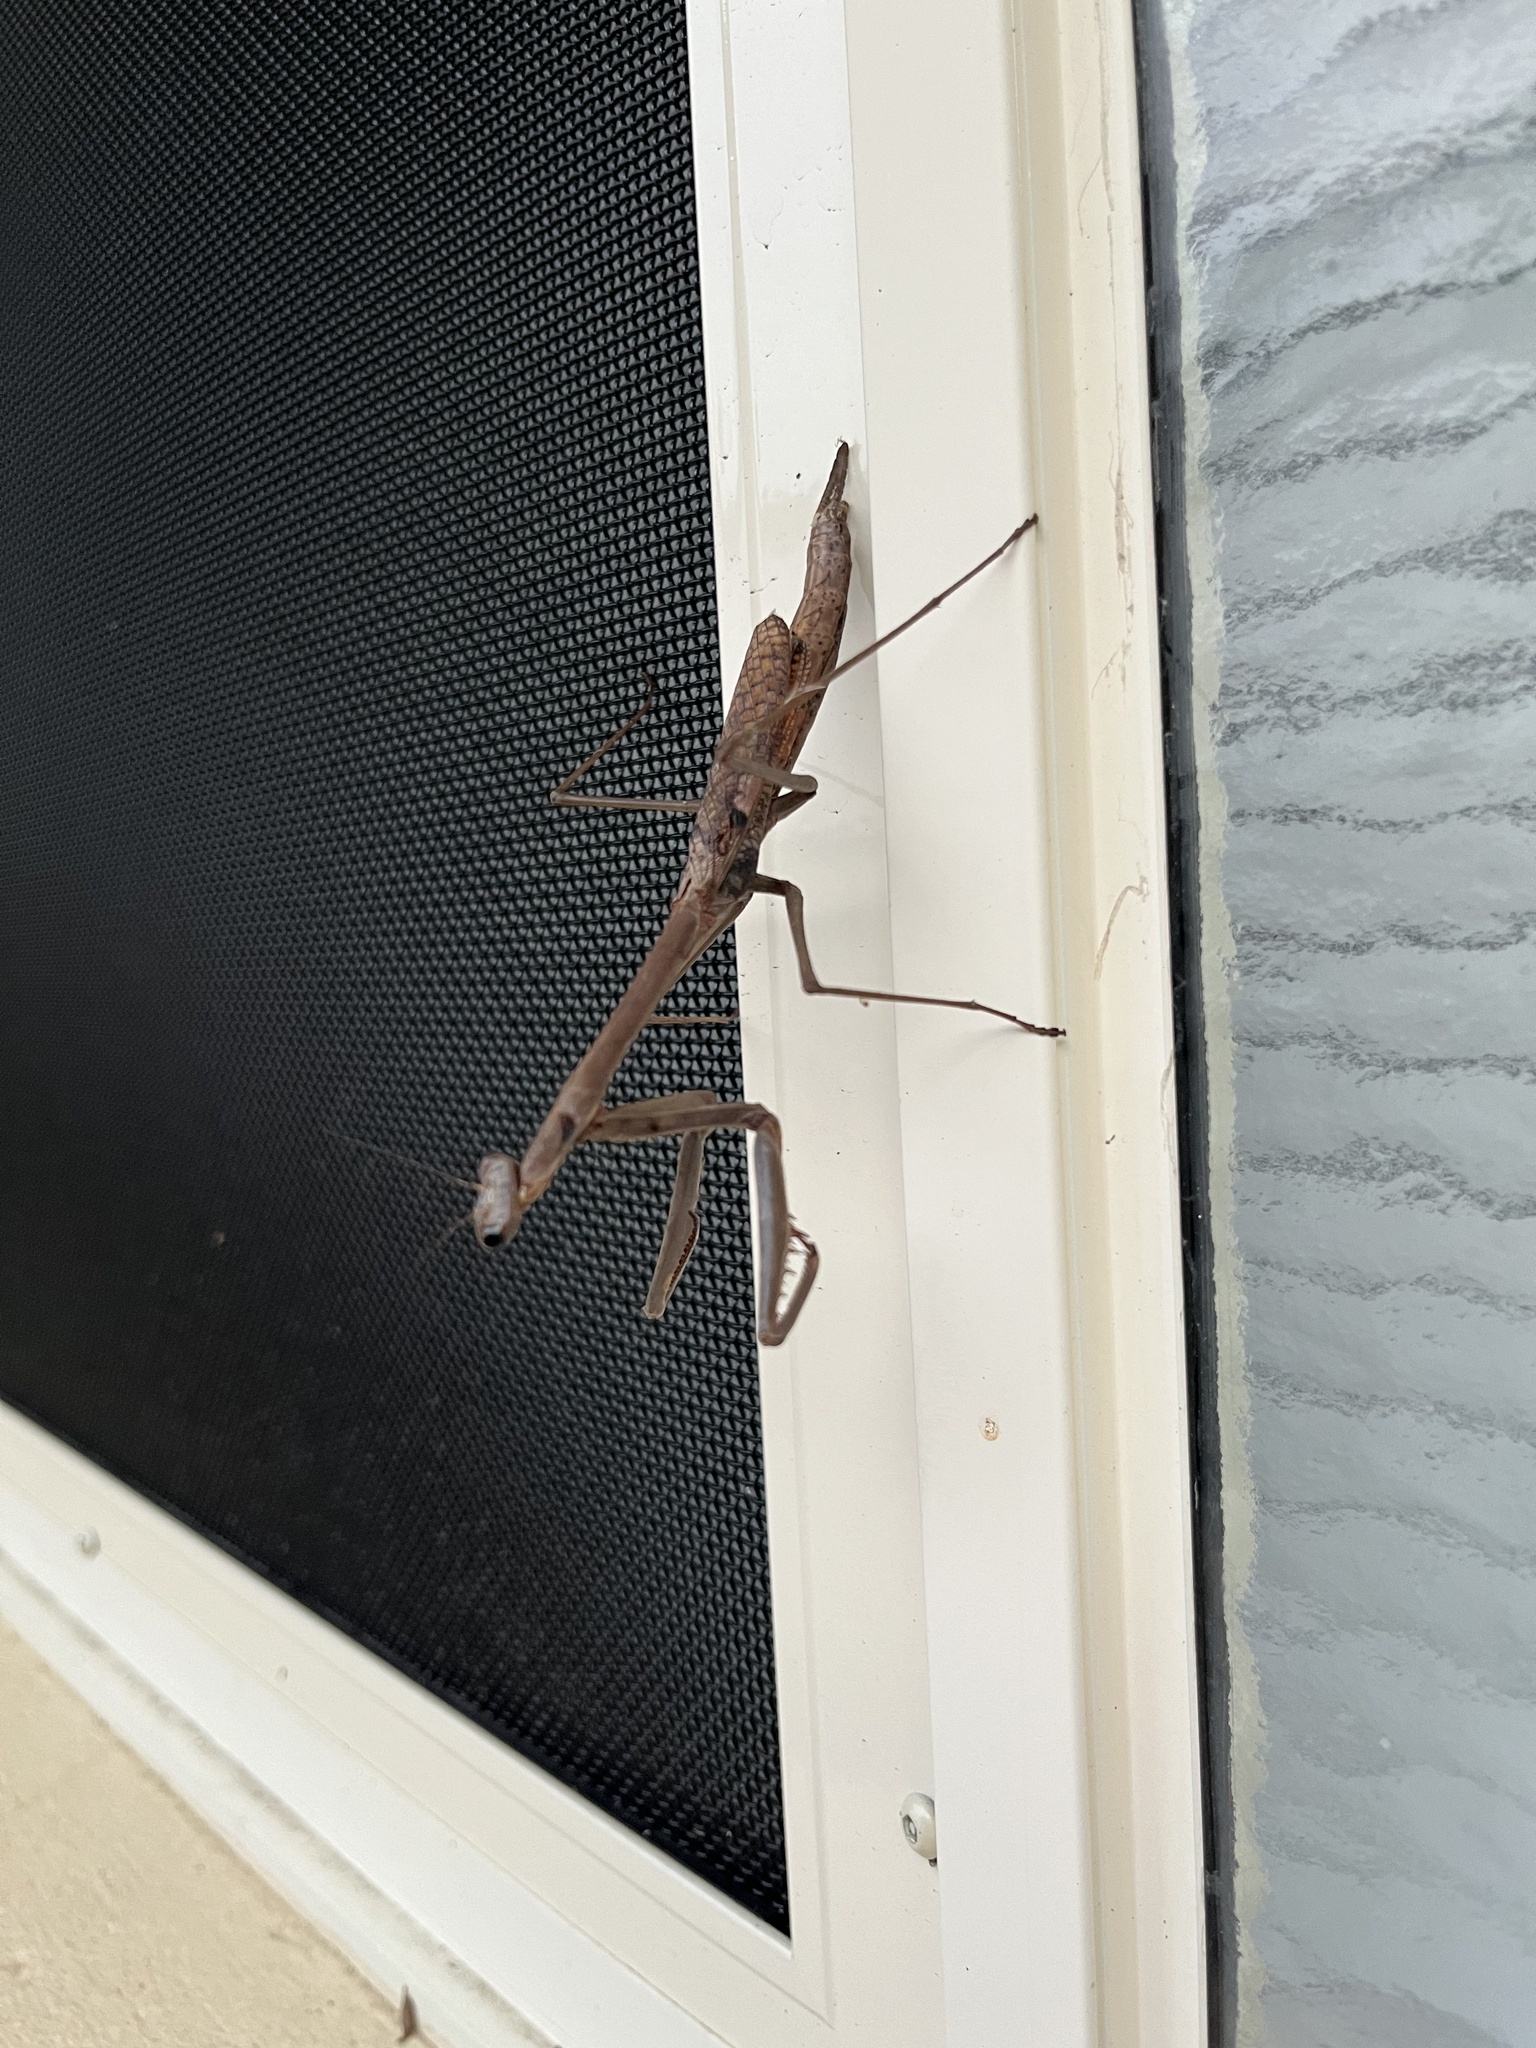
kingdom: Animalia
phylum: Arthropoda
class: Insecta
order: Mantodea
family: Mantidae
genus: Archimantis
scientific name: Archimantis latistyla
